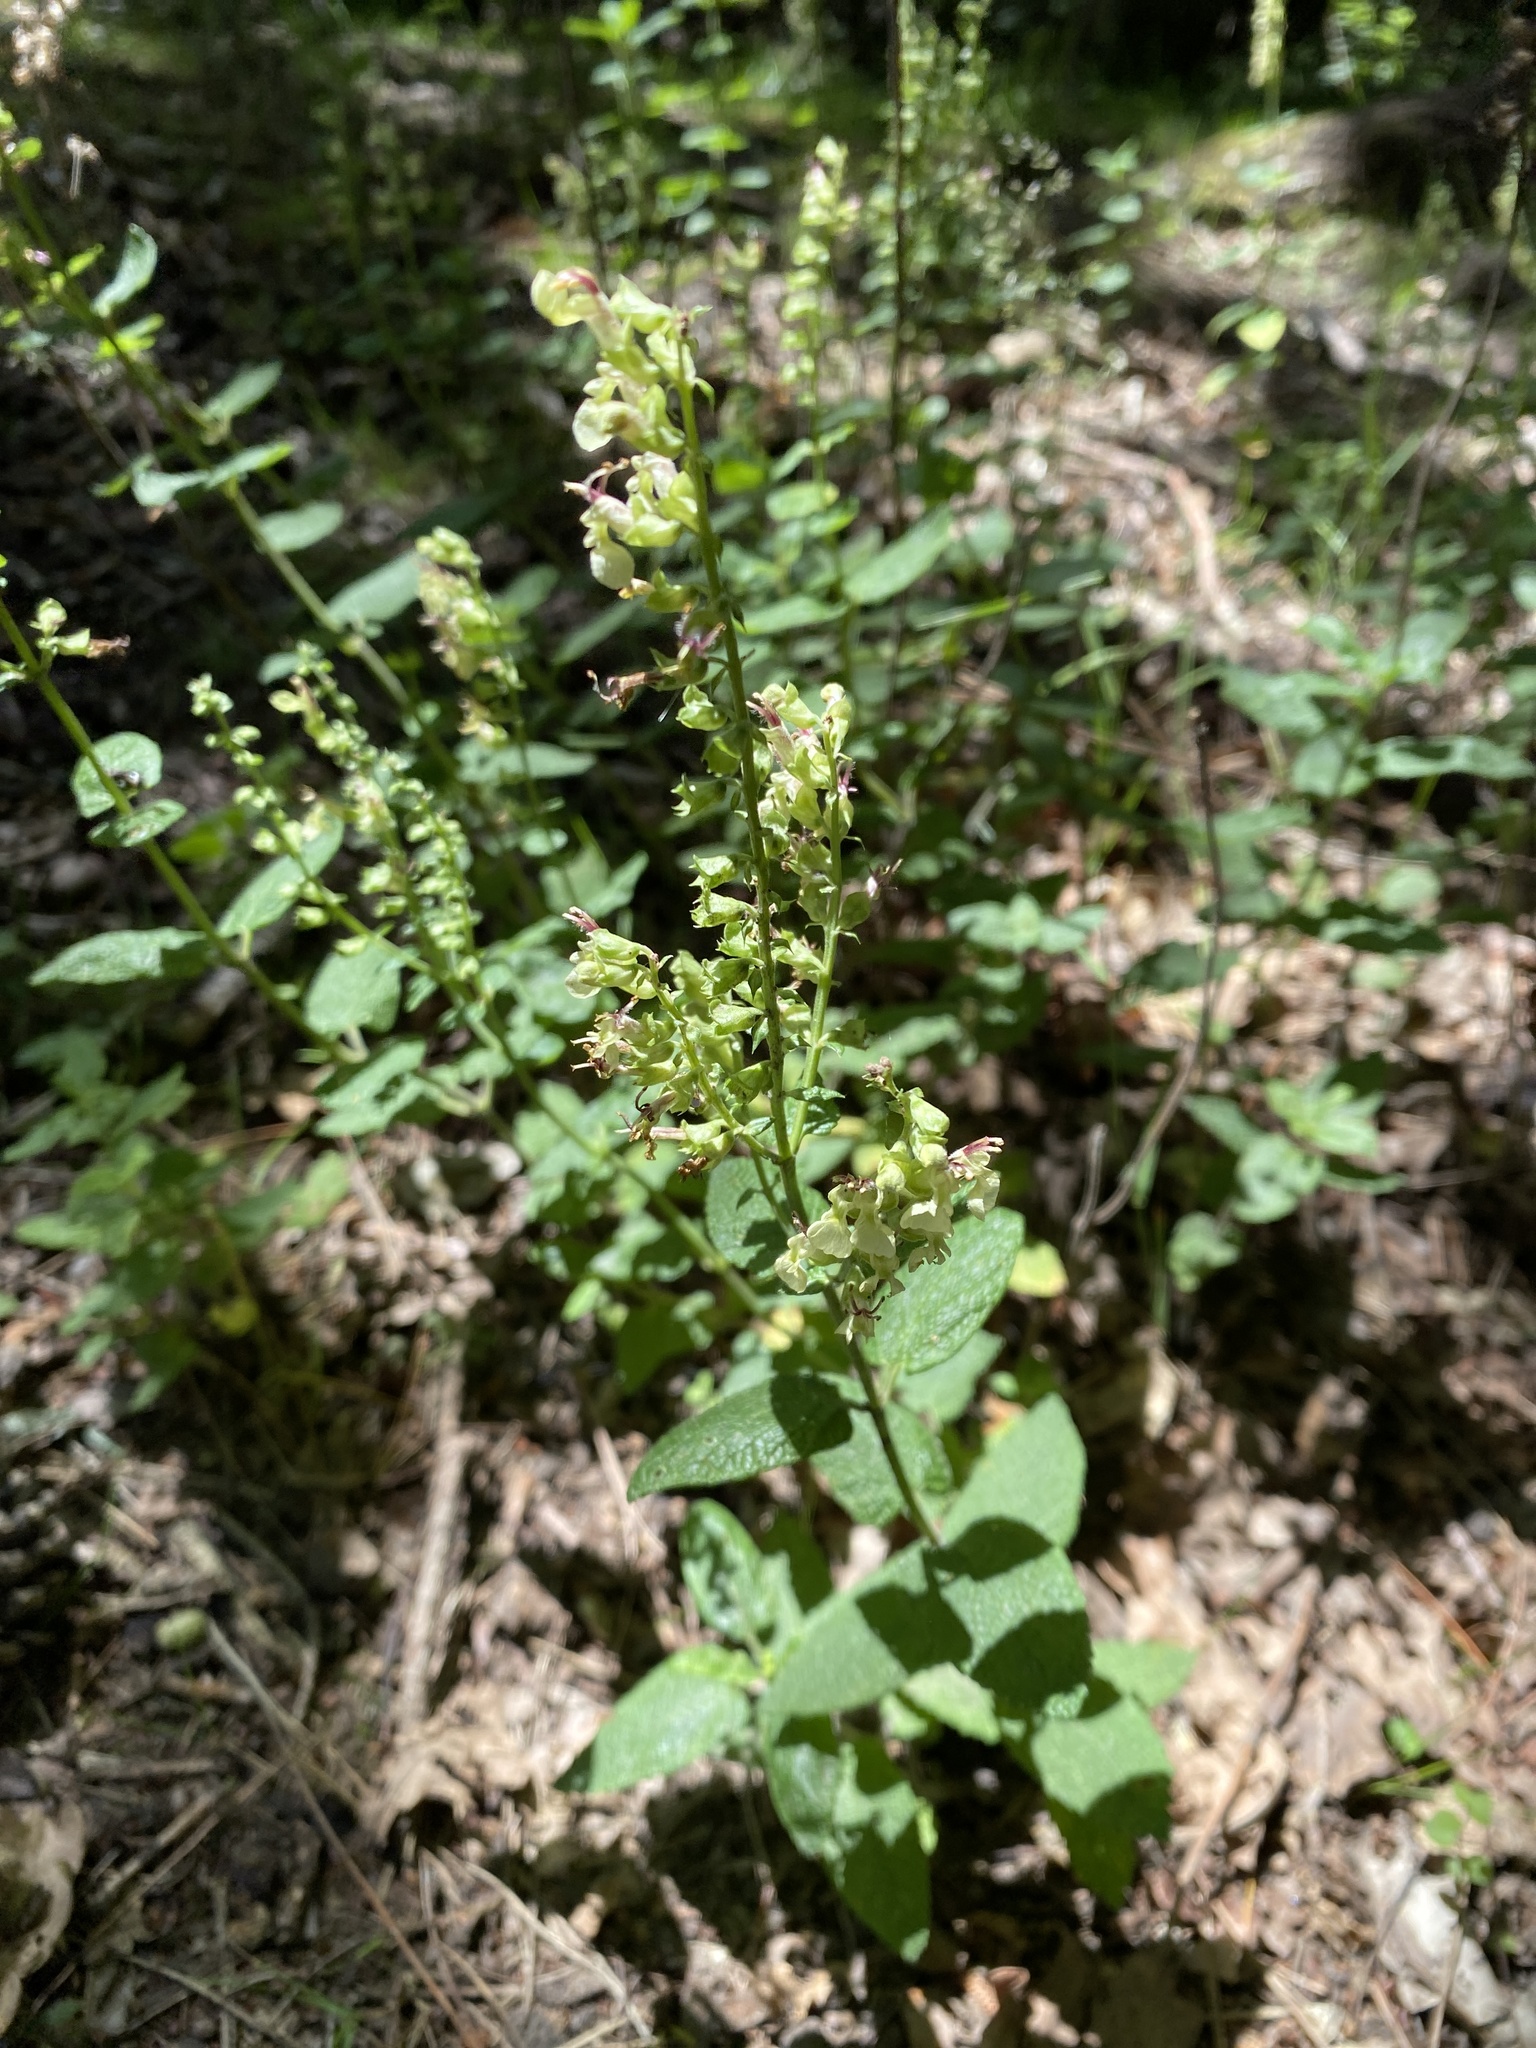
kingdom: Plantae
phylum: Tracheophyta
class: Magnoliopsida
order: Lamiales
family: Lamiaceae
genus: Teucrium
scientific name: Teucrium scorodonia
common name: Woodland germander
